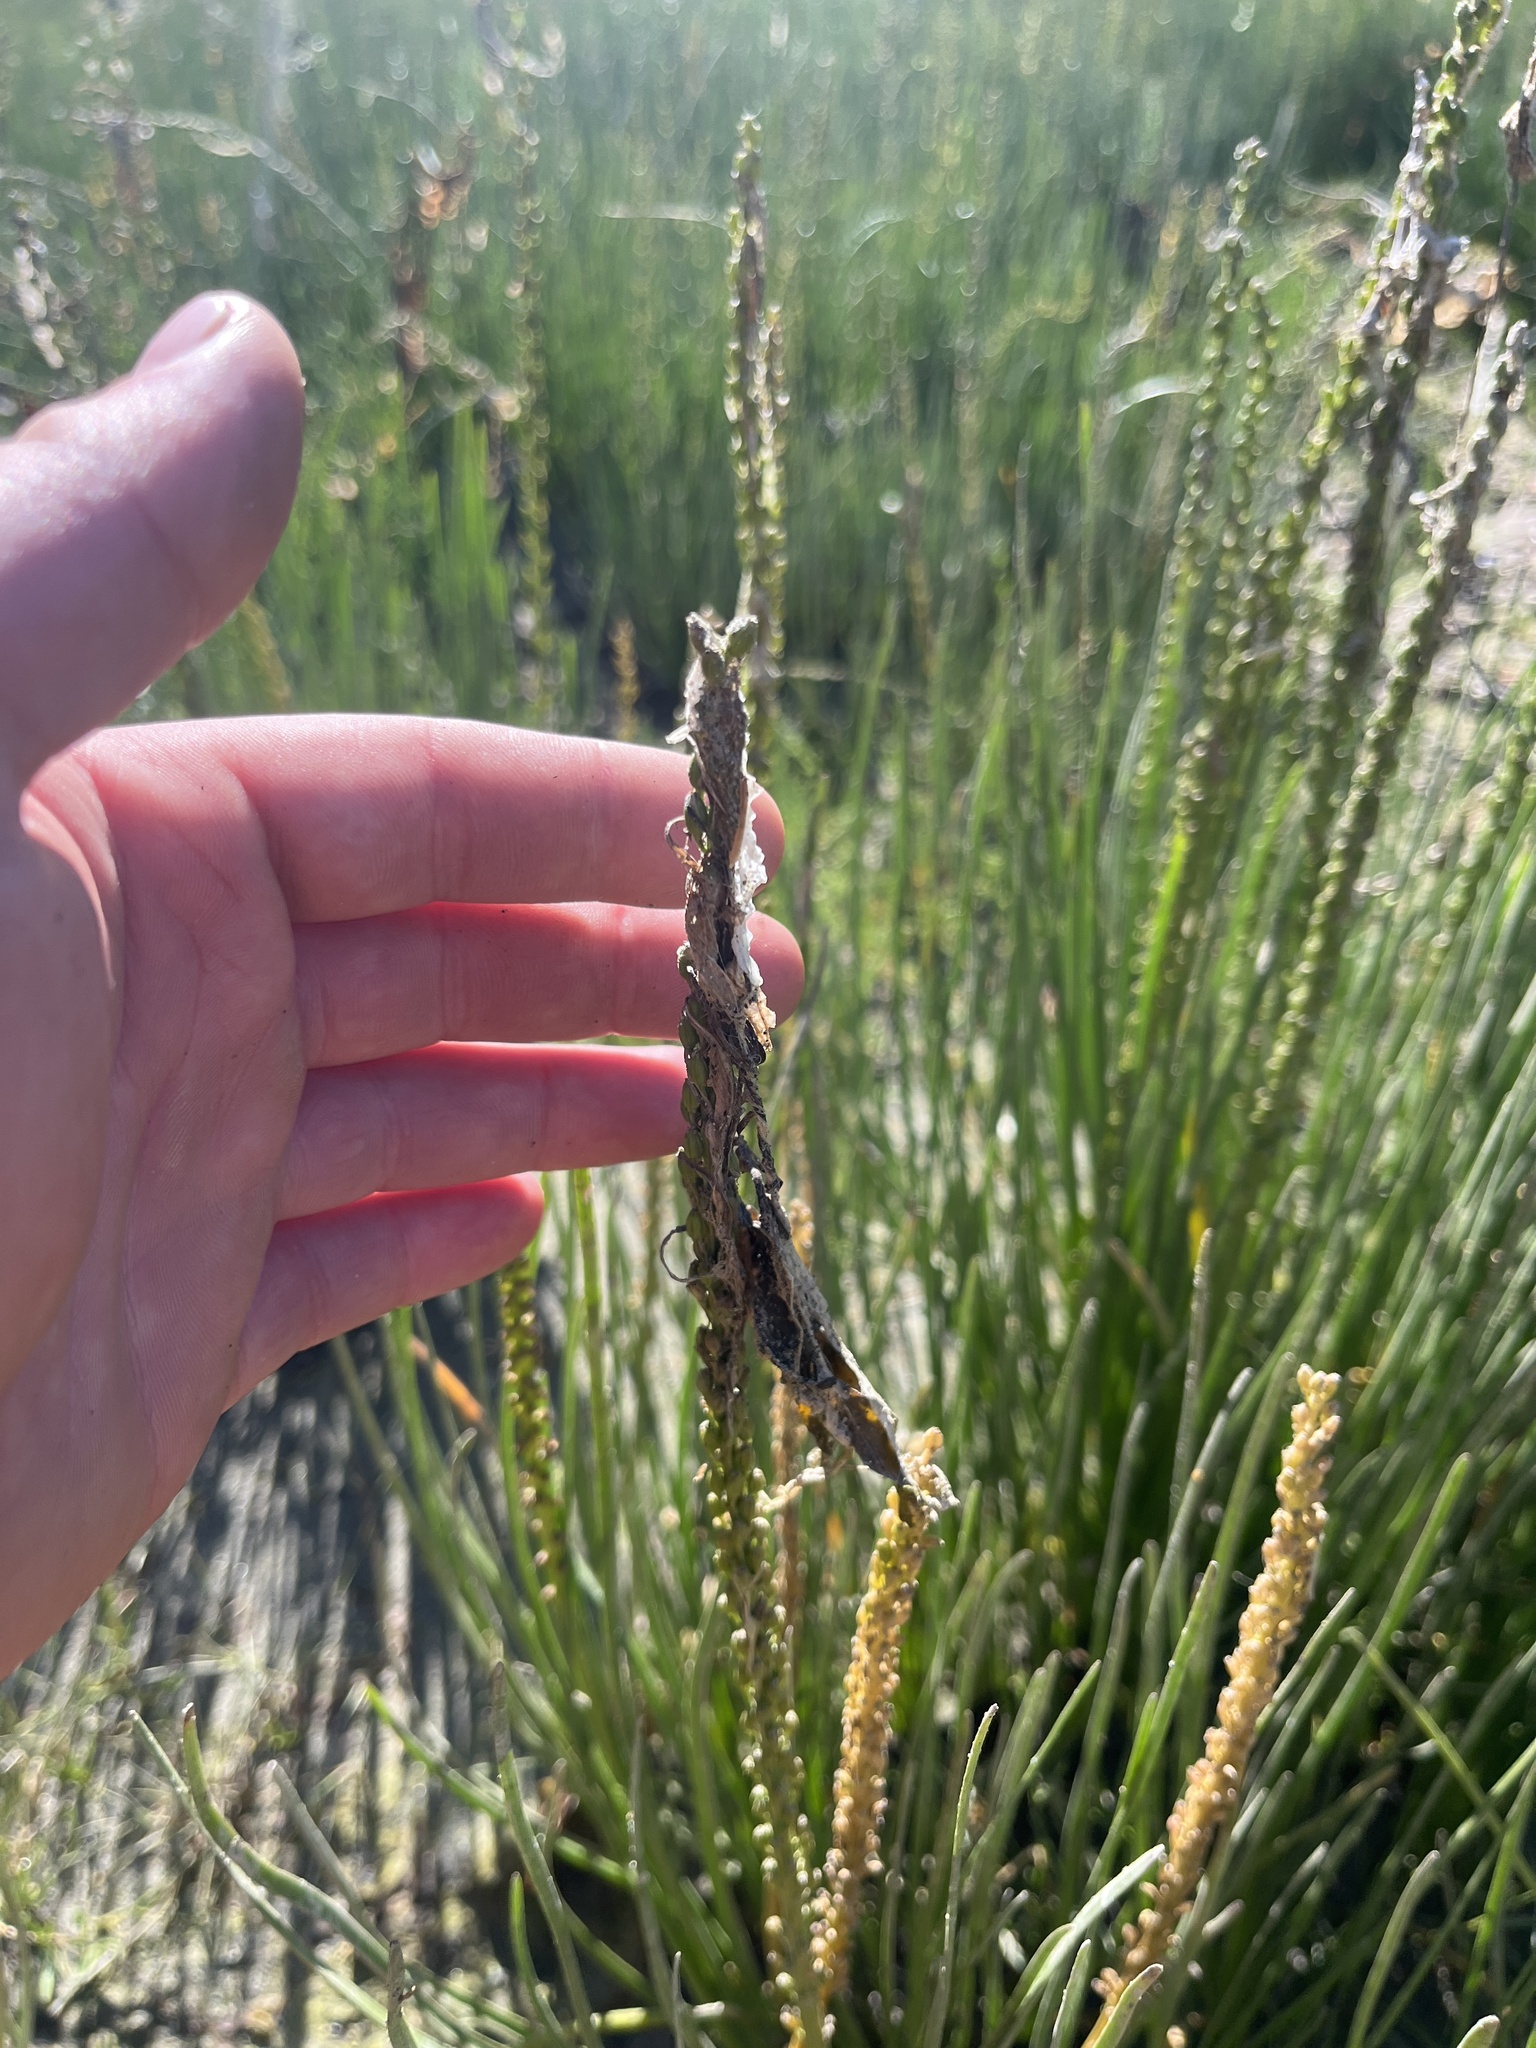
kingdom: Plantae
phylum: Tracheophyta
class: Liliopsida
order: Alismatales
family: Juncaginaceae
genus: Triglochin
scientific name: Triglochin maritima
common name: Sea arrowgrass
